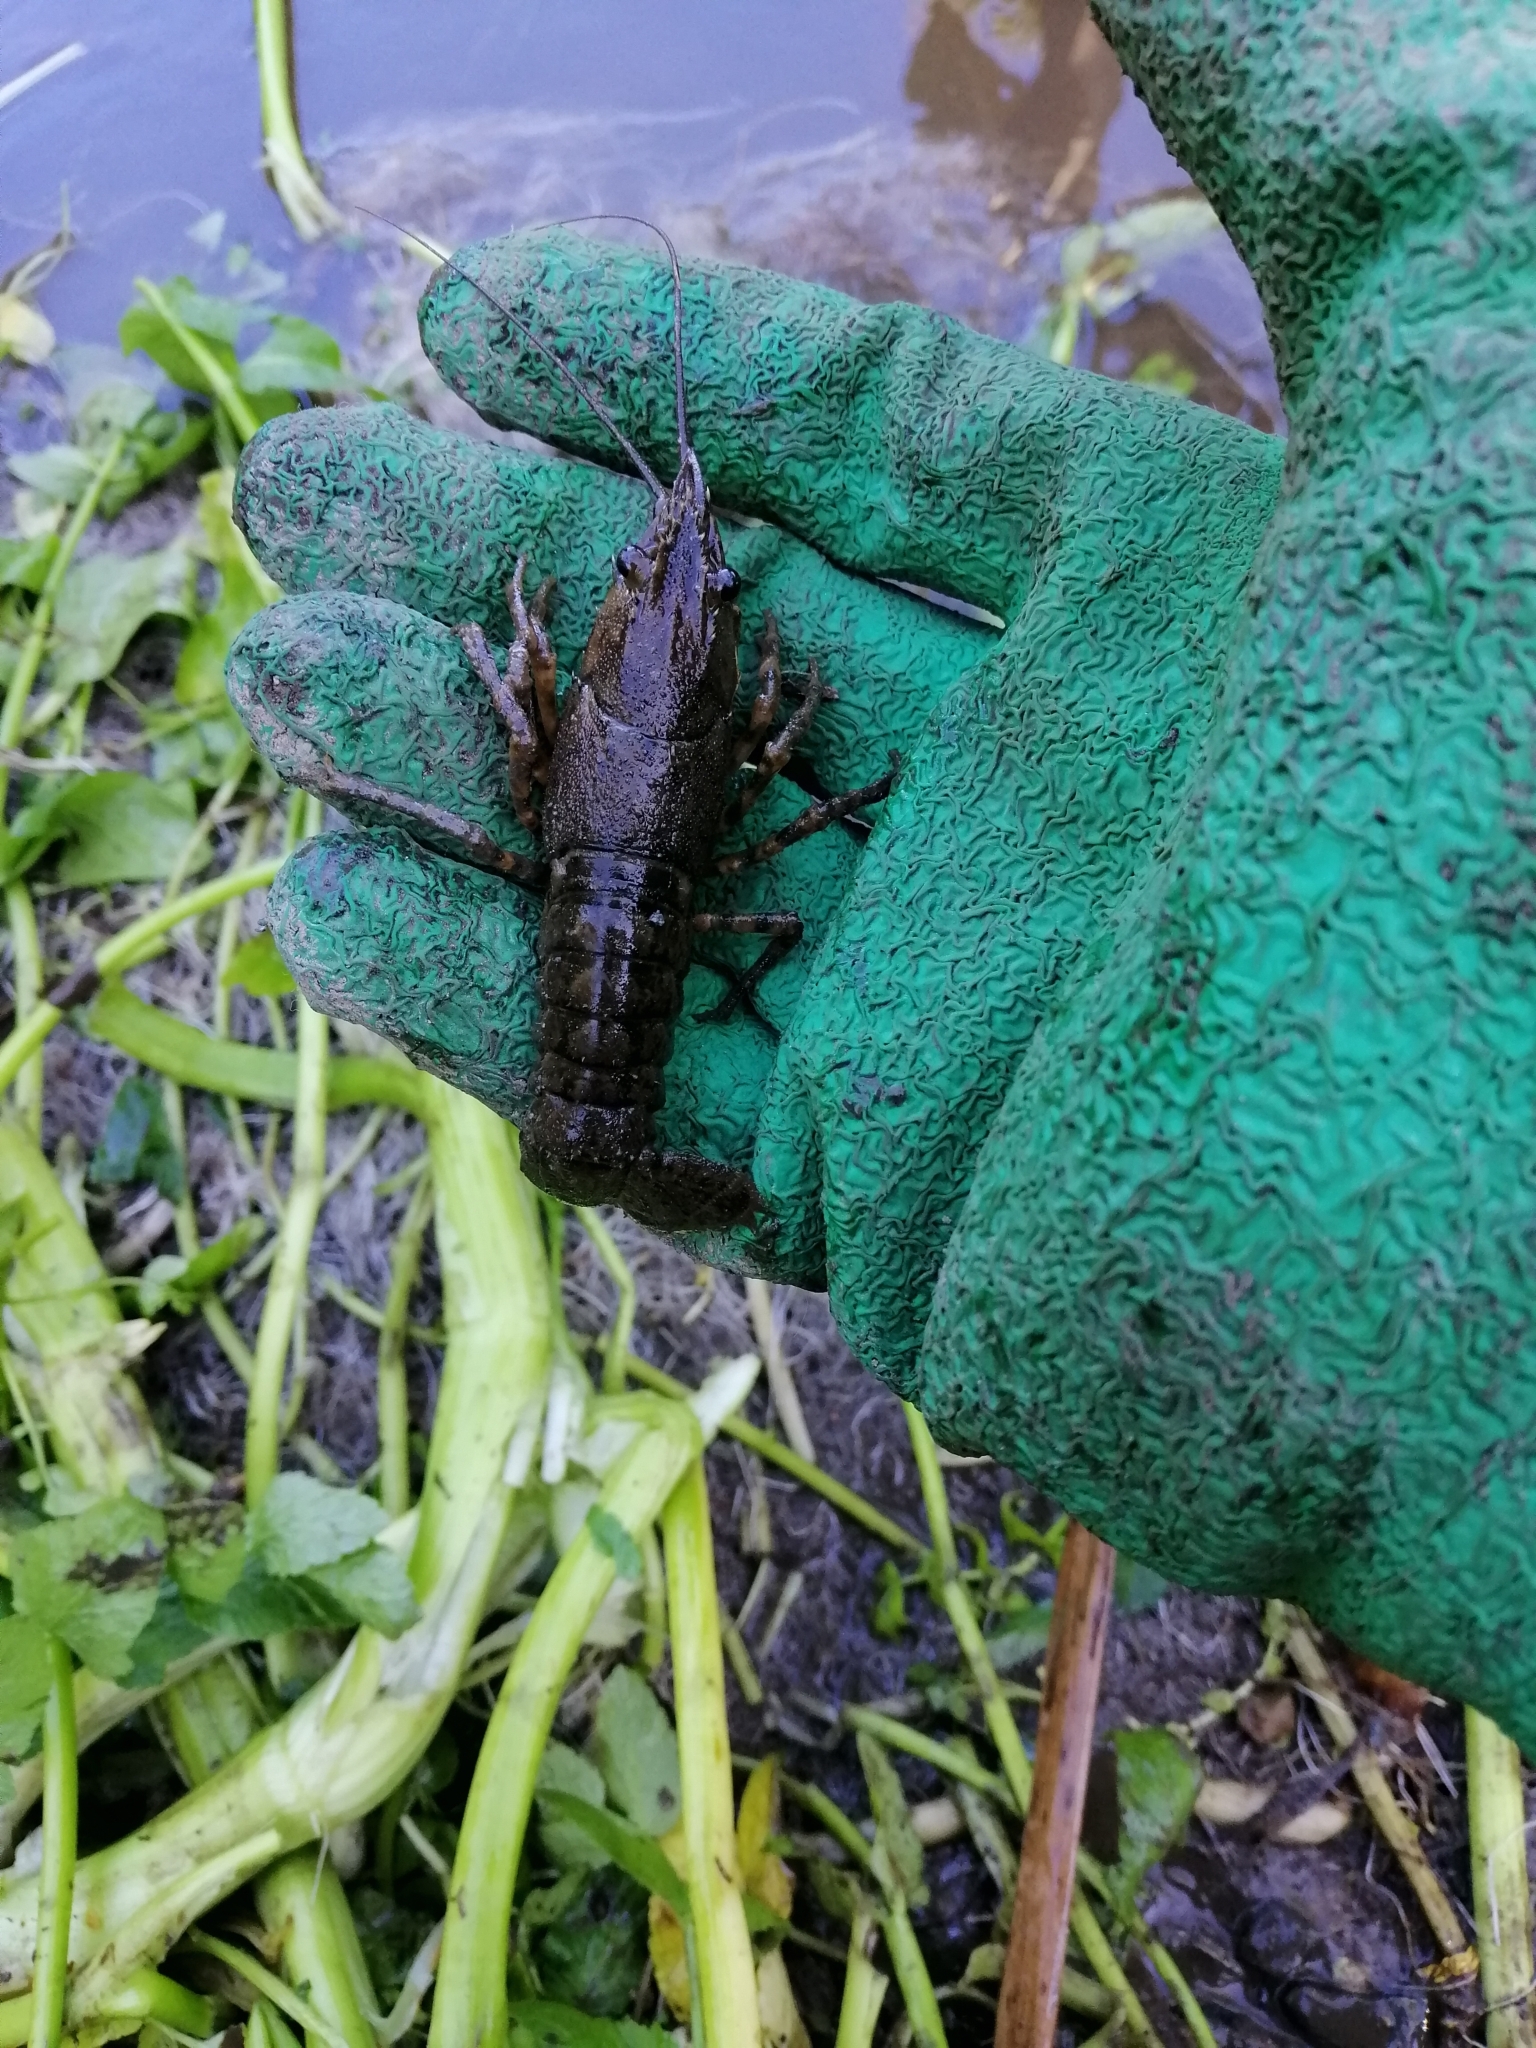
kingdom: Animalia
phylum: Arthropoda
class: Malacostraca
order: Decapoda
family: Parastacidae
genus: Paranephrops
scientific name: Paranephrops planifrons
